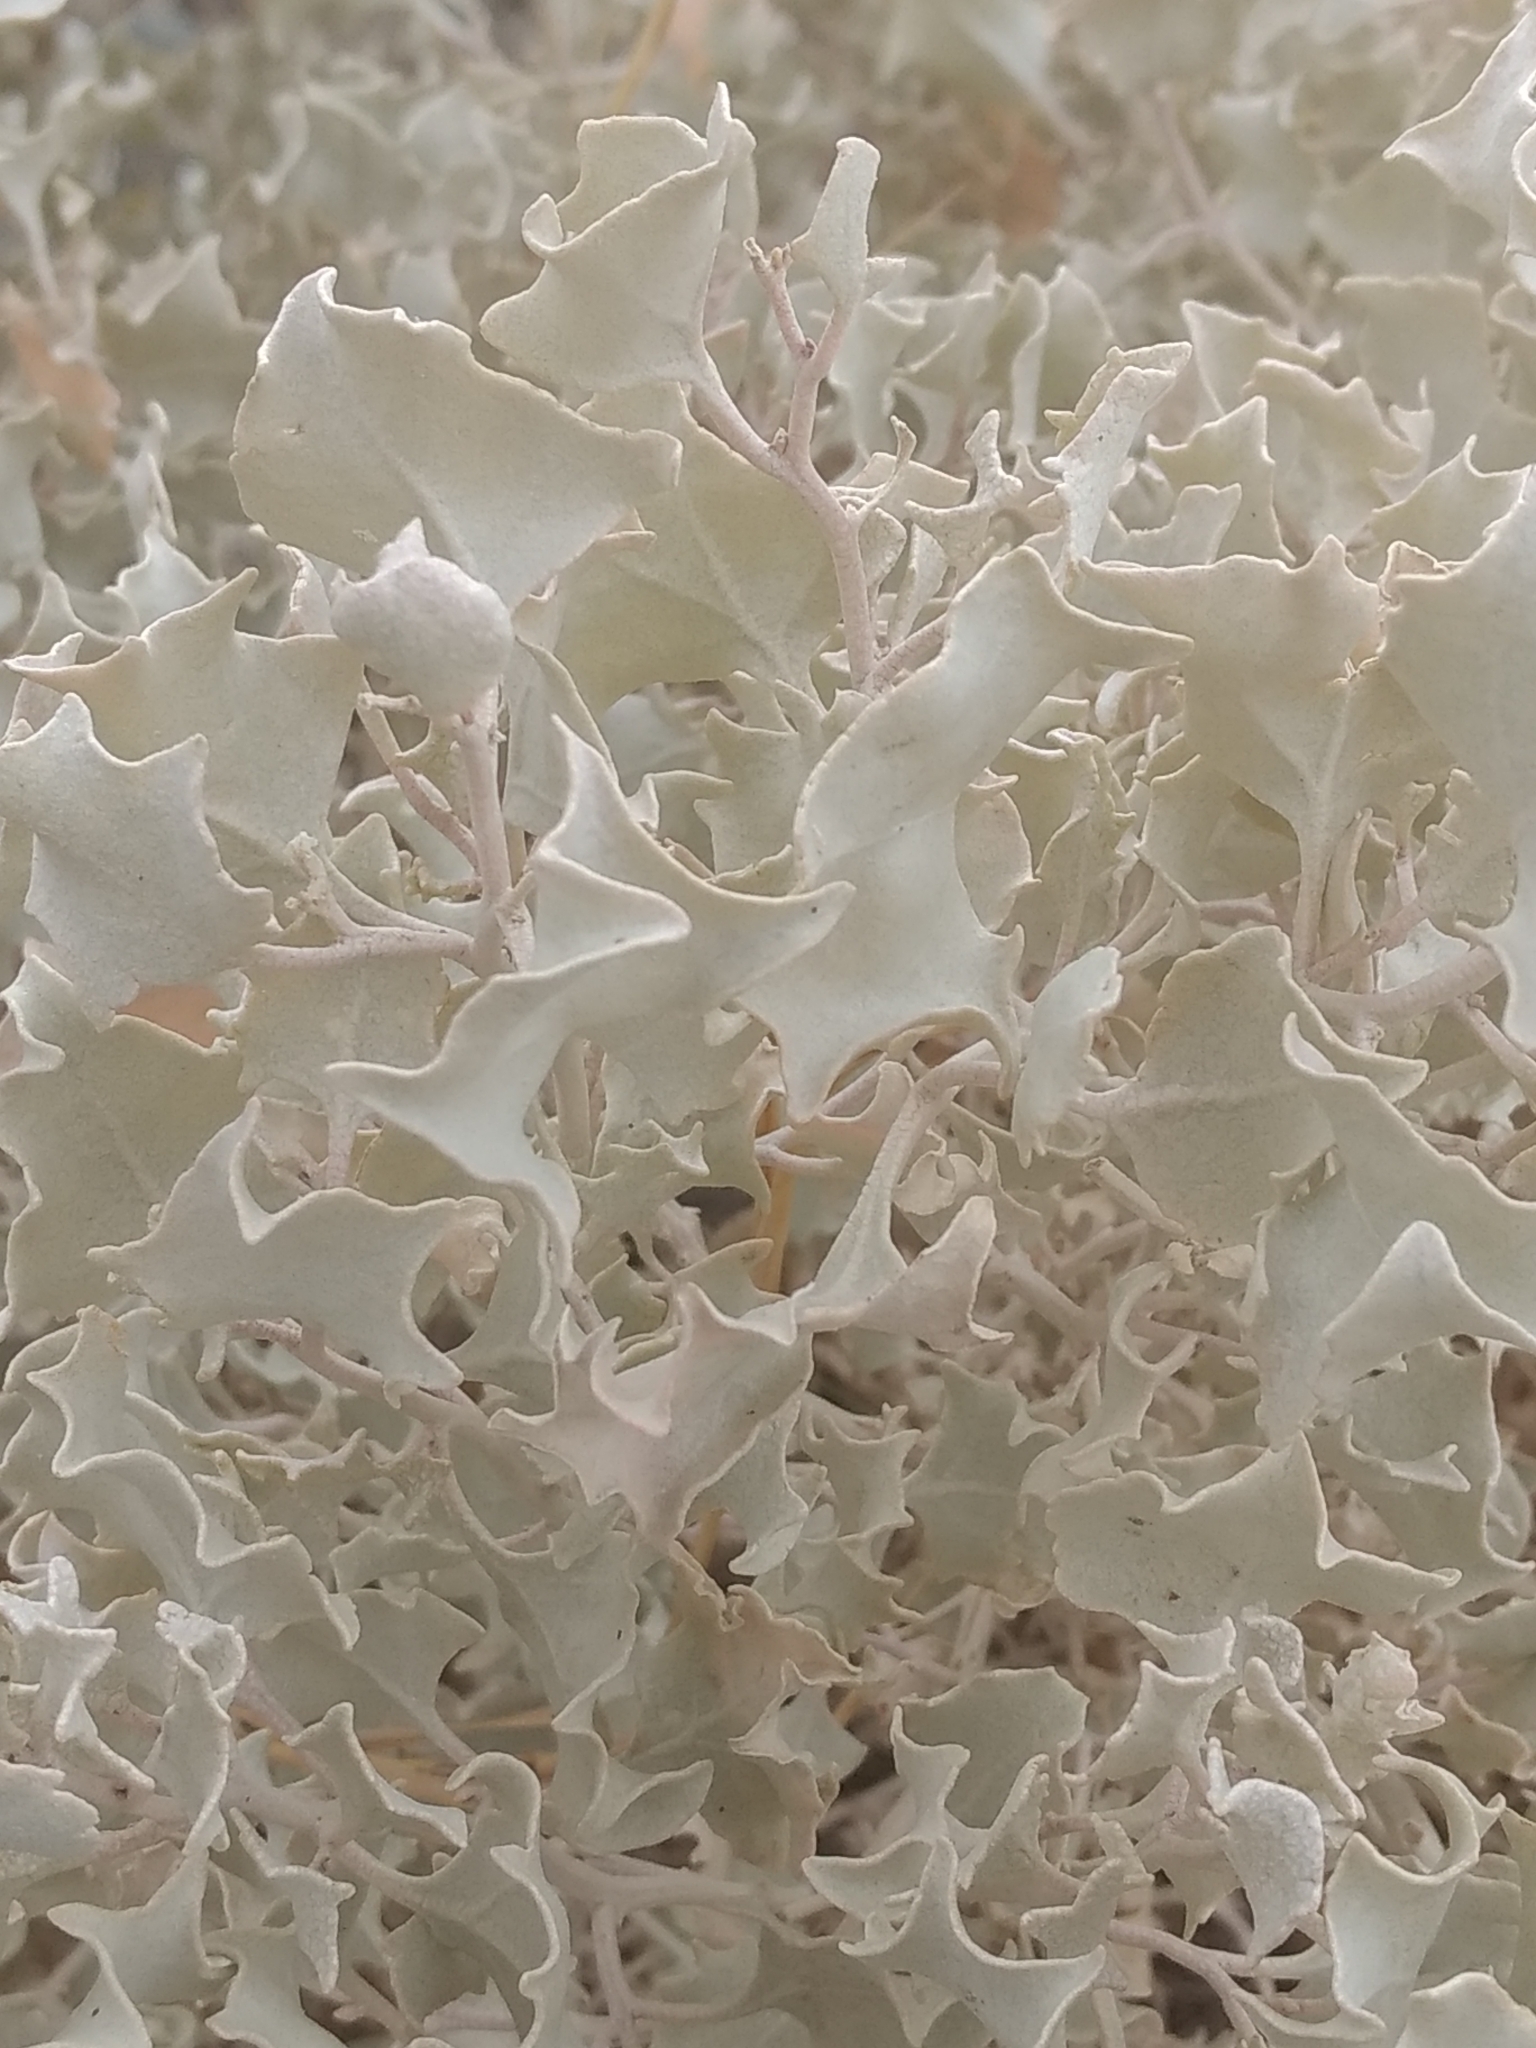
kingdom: Plantae
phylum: Tracheophyta
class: Magnoliopsida
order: Caryophyllales
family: Amaranthaceae
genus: Atriplex
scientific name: Atriplex hymenelytra
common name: Desert-holly
